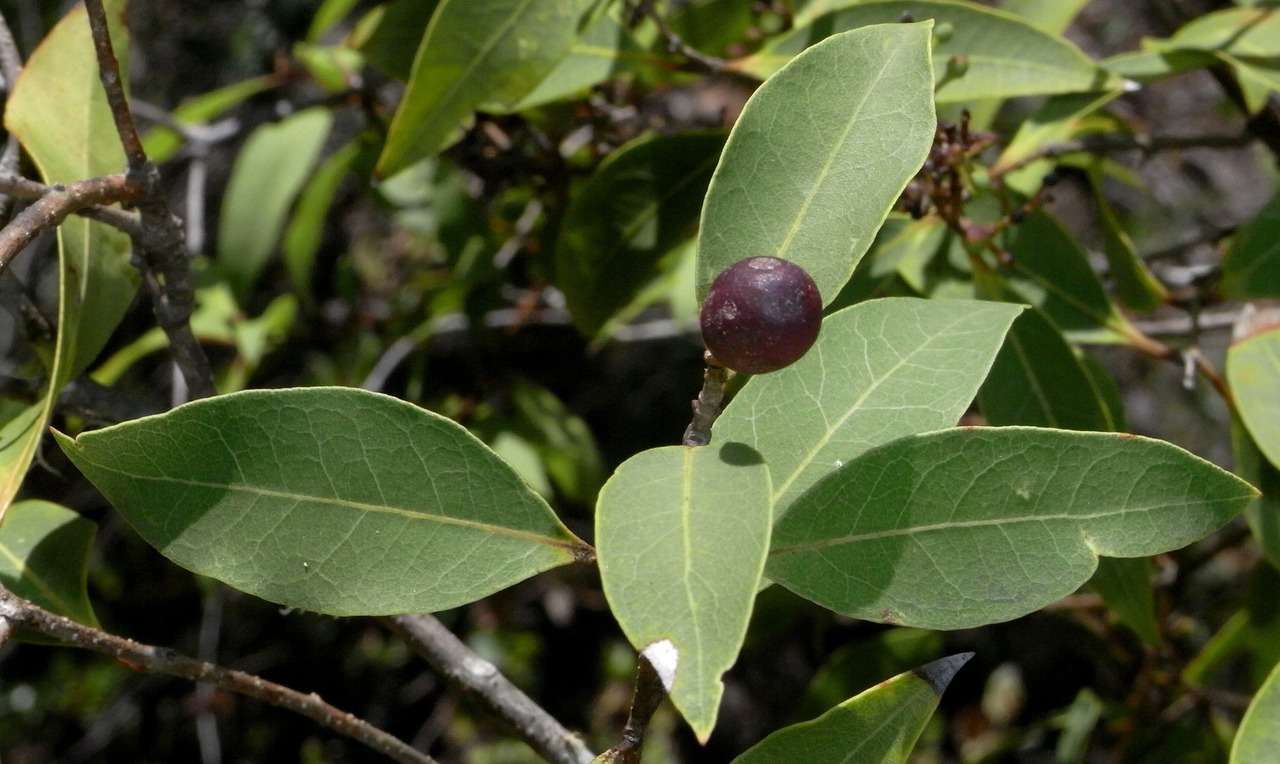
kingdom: Plantae
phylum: Tracheophyta
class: Magnoliopsida
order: Lamiales
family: Oleaceae
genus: Notelaea
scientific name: Notelaea venosa
